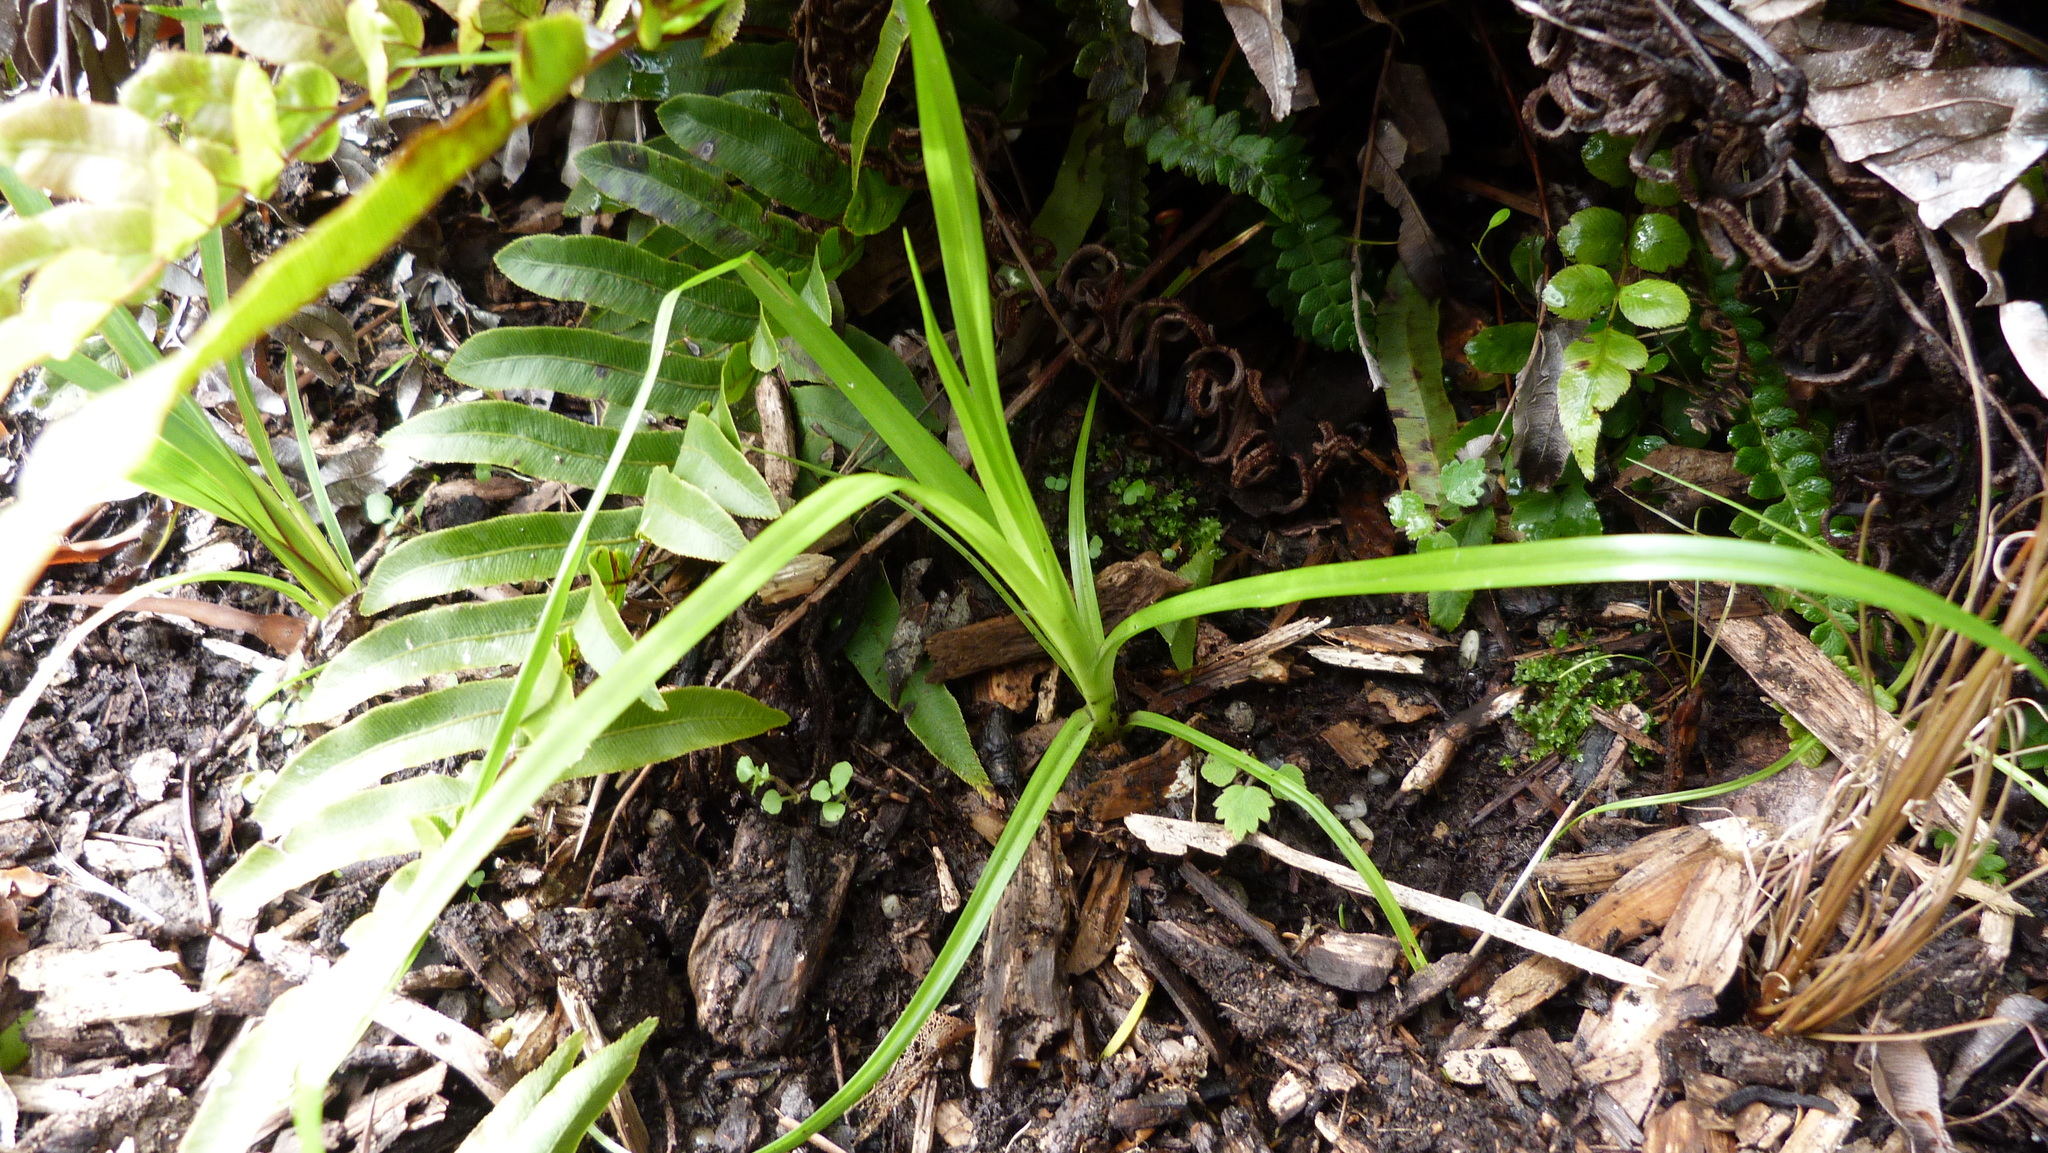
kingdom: Plantae
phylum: Tracheophyta
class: Liliopsida
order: Poales
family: Cyperaceae
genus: Cyperus
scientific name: Cyperus eragrostis
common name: Tall flatsedge
